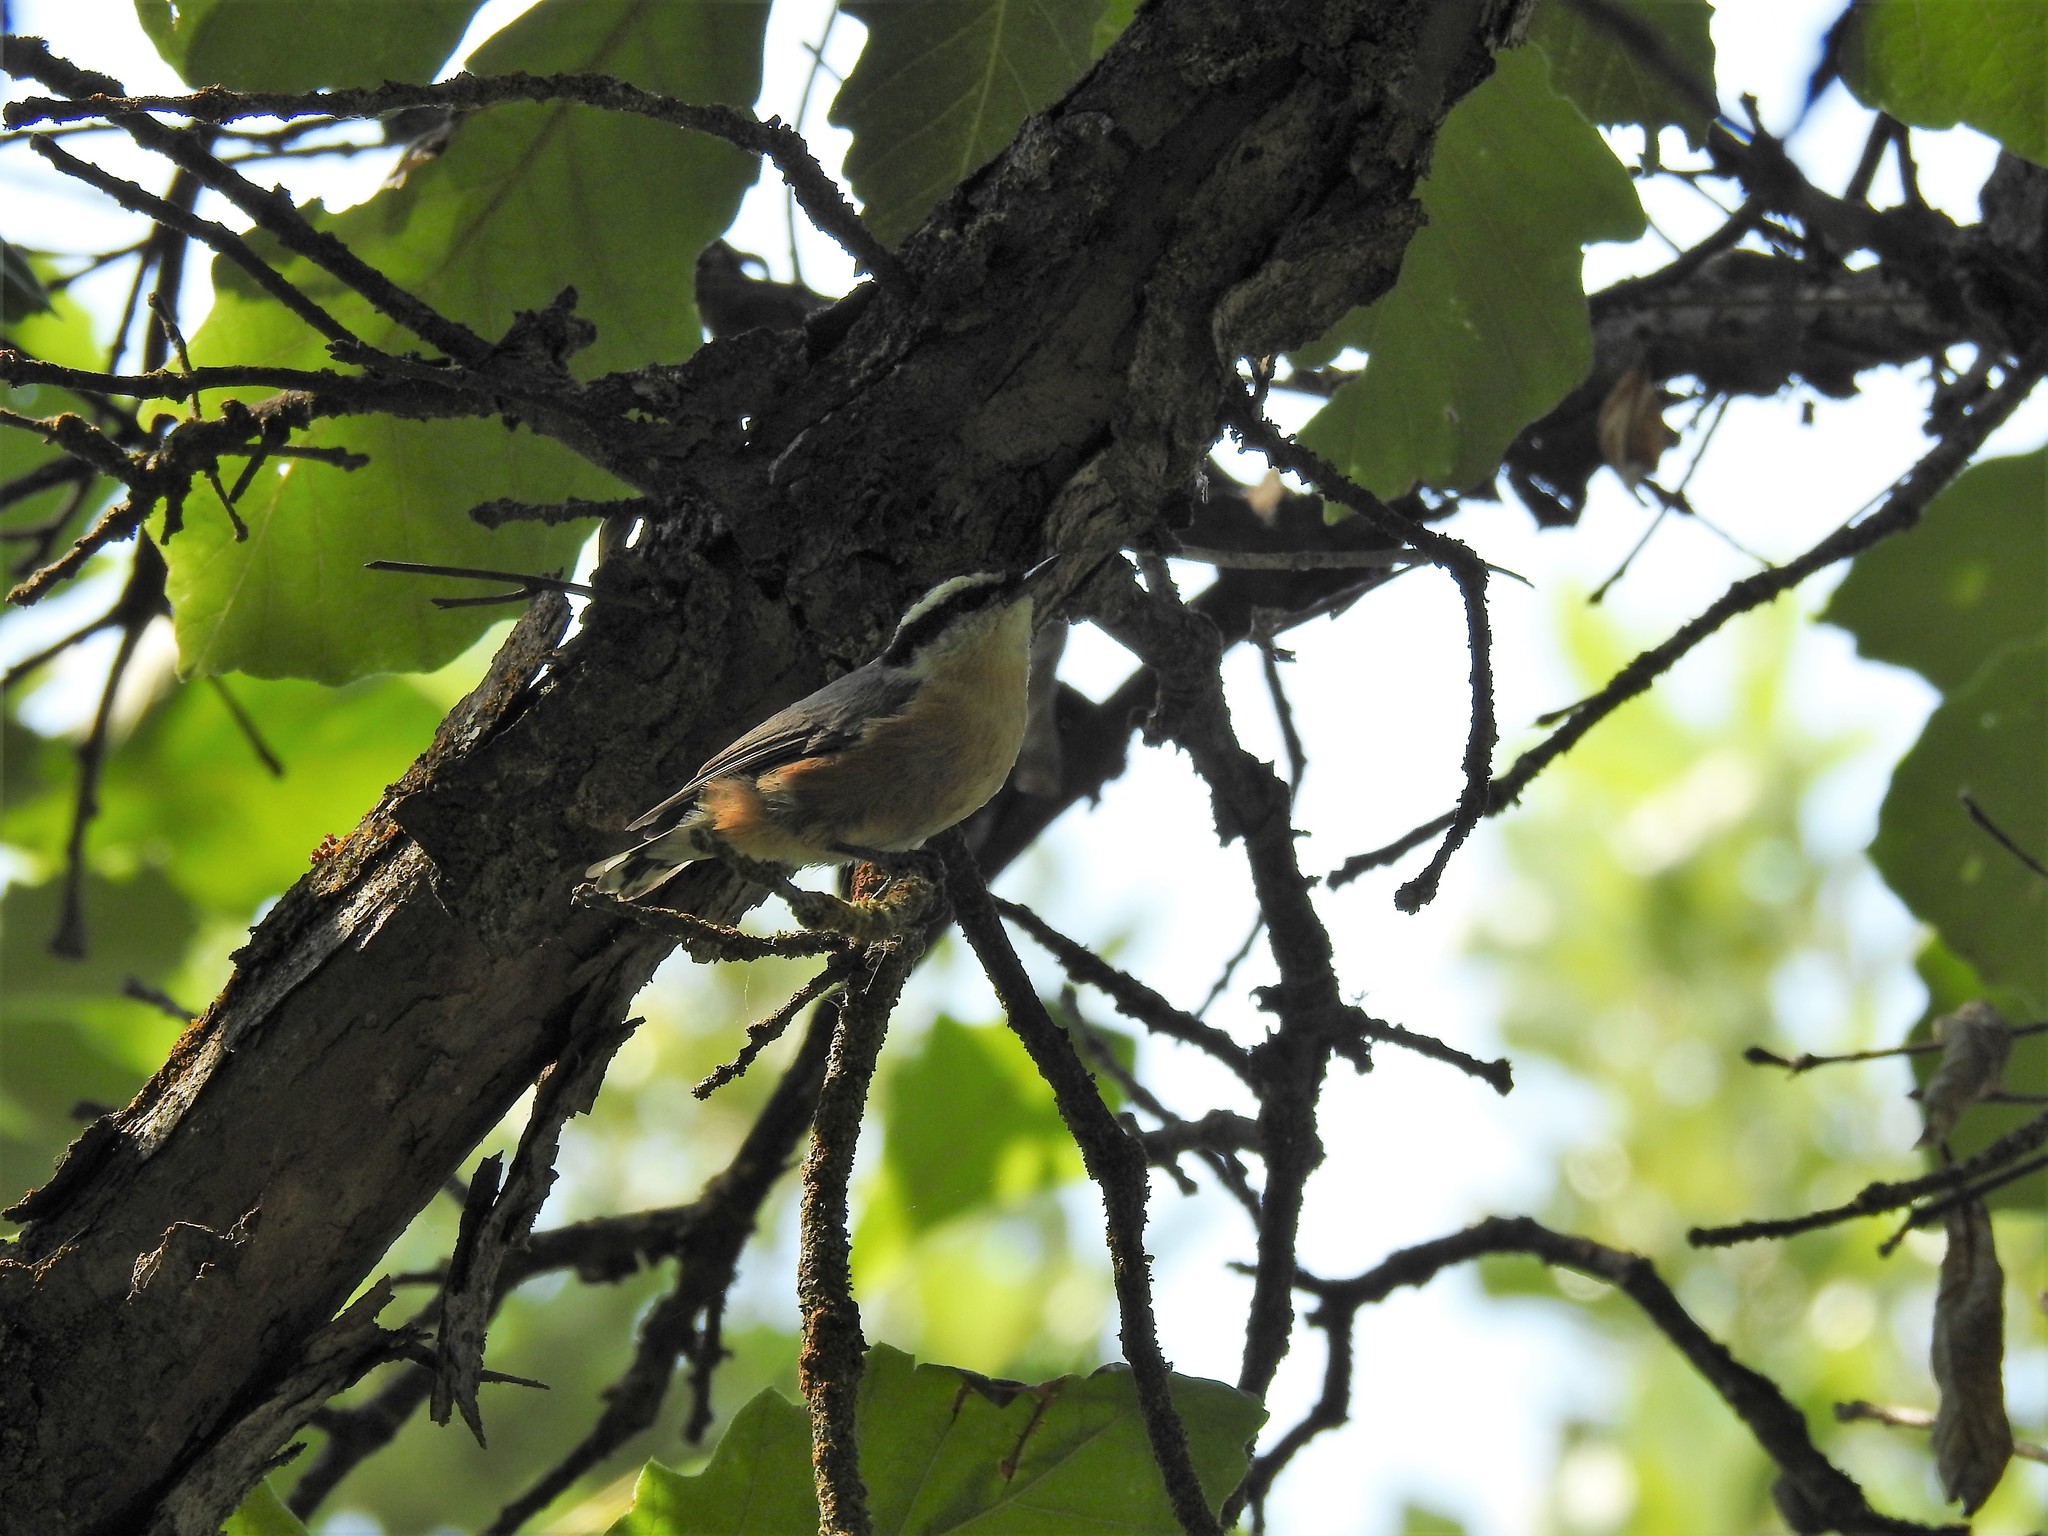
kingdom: Animalia
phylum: Chordata
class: Aves
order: Passeriformes
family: Sittidae
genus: Sitta
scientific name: Sitta canadensis
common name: Red-breasted nuthatch
